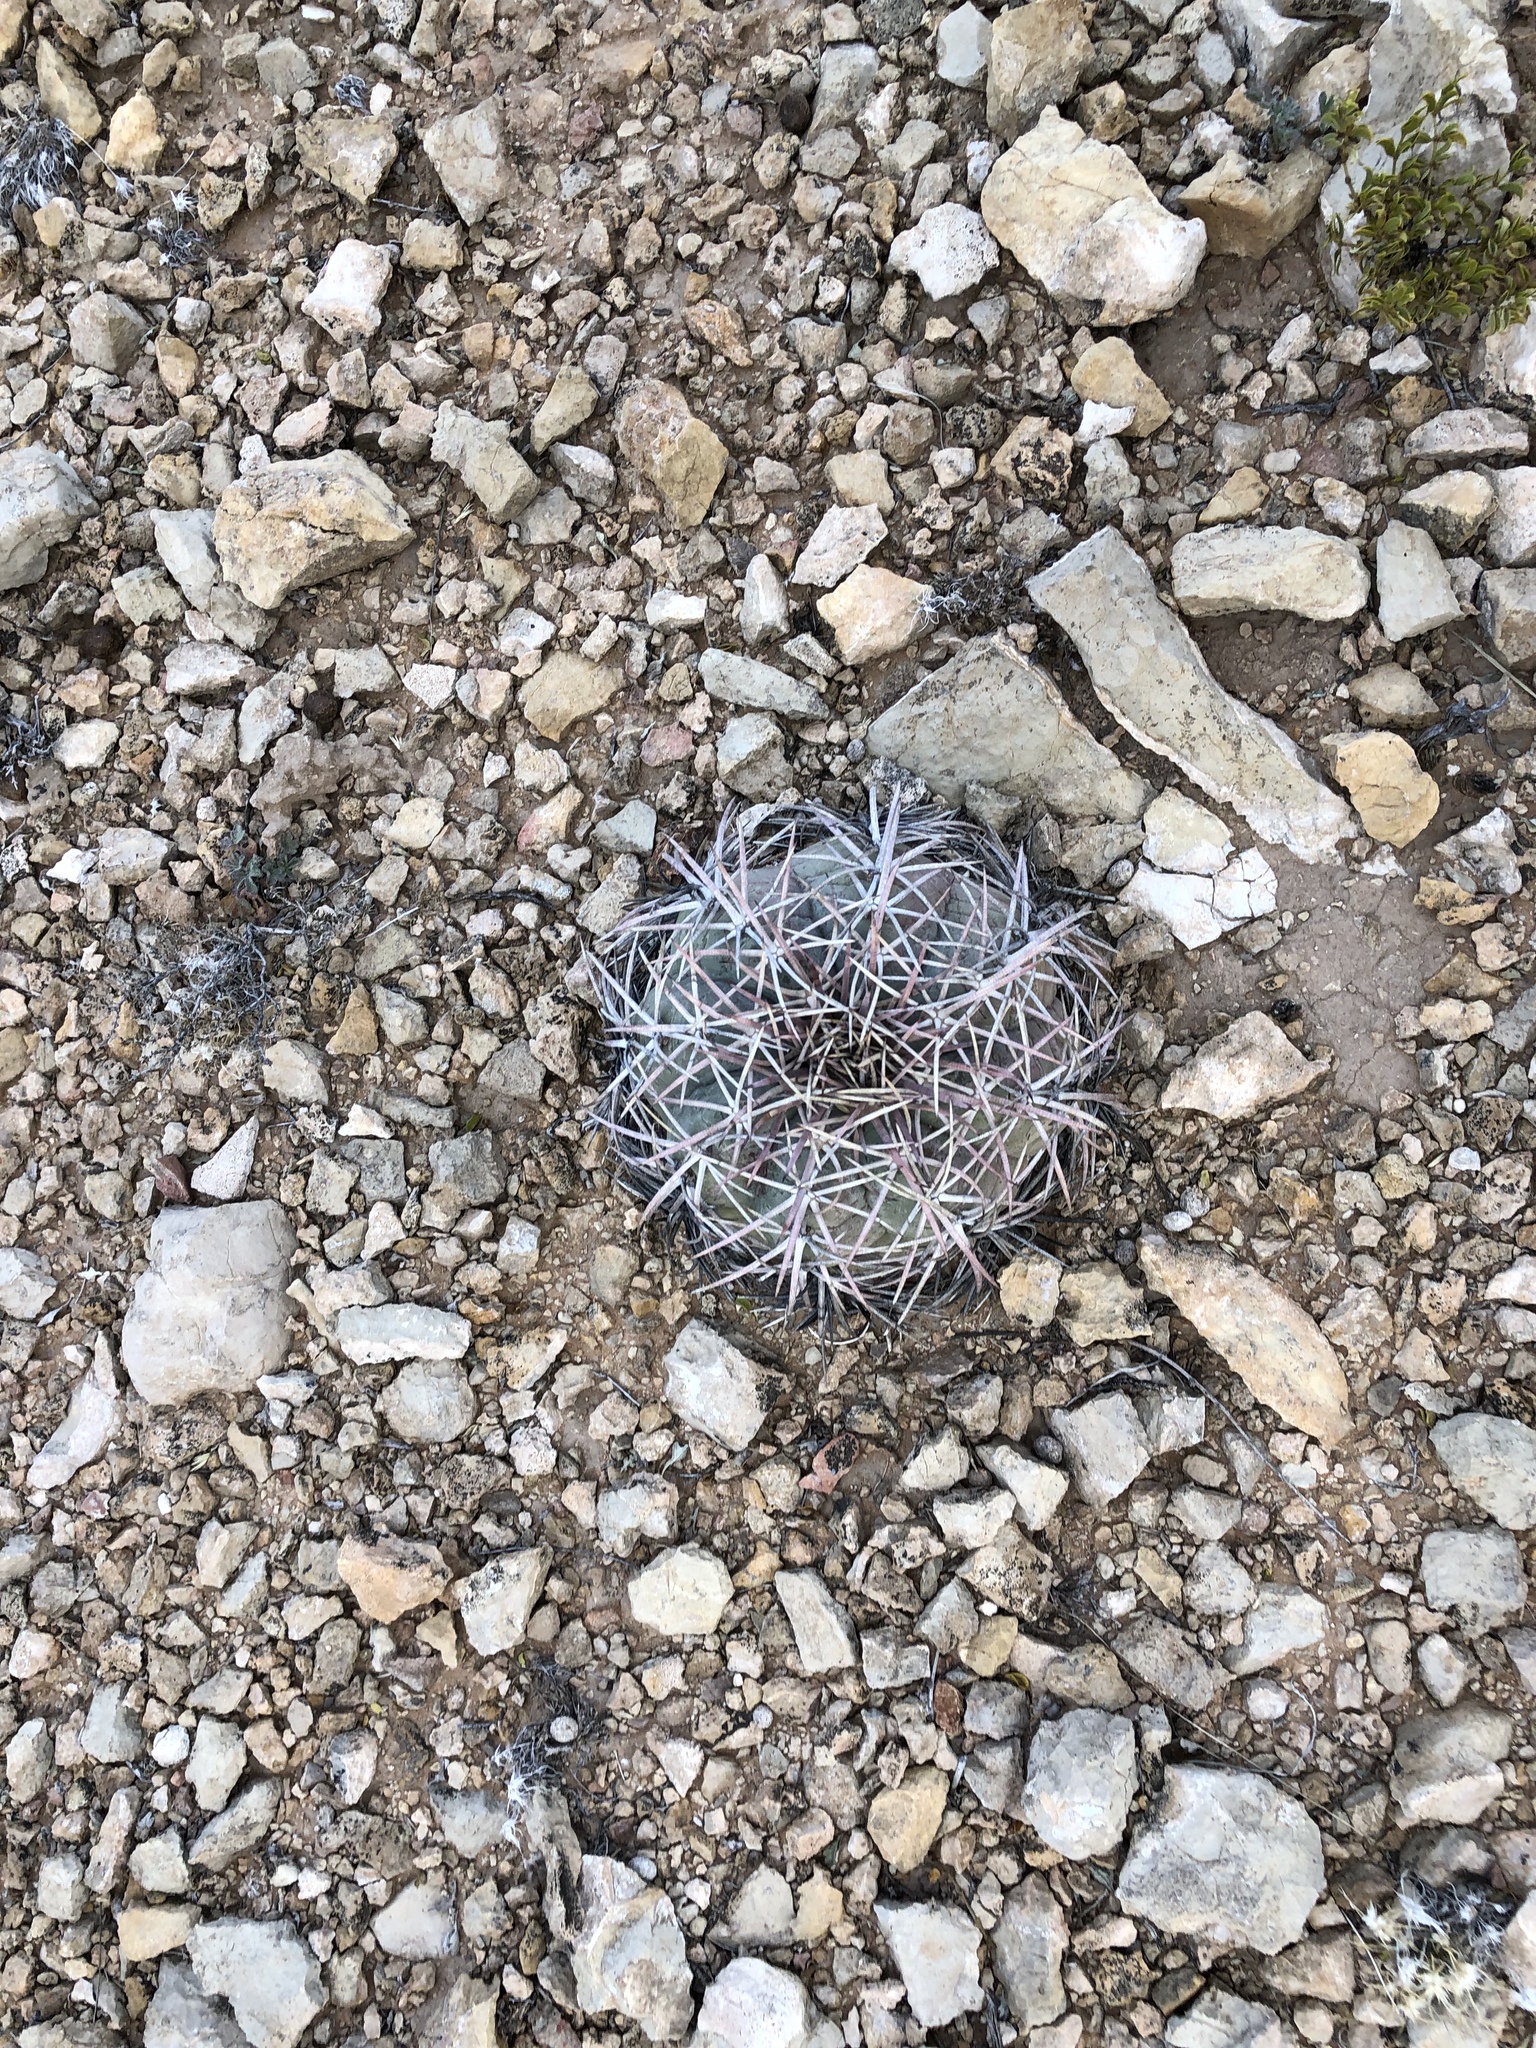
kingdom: Plantae
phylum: Tracheophyta
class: Magnoliopsida
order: Caryophyllales
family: Cactaceae
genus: Echinocactus
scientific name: Echinocactus horizonthalonius
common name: Devilshead
